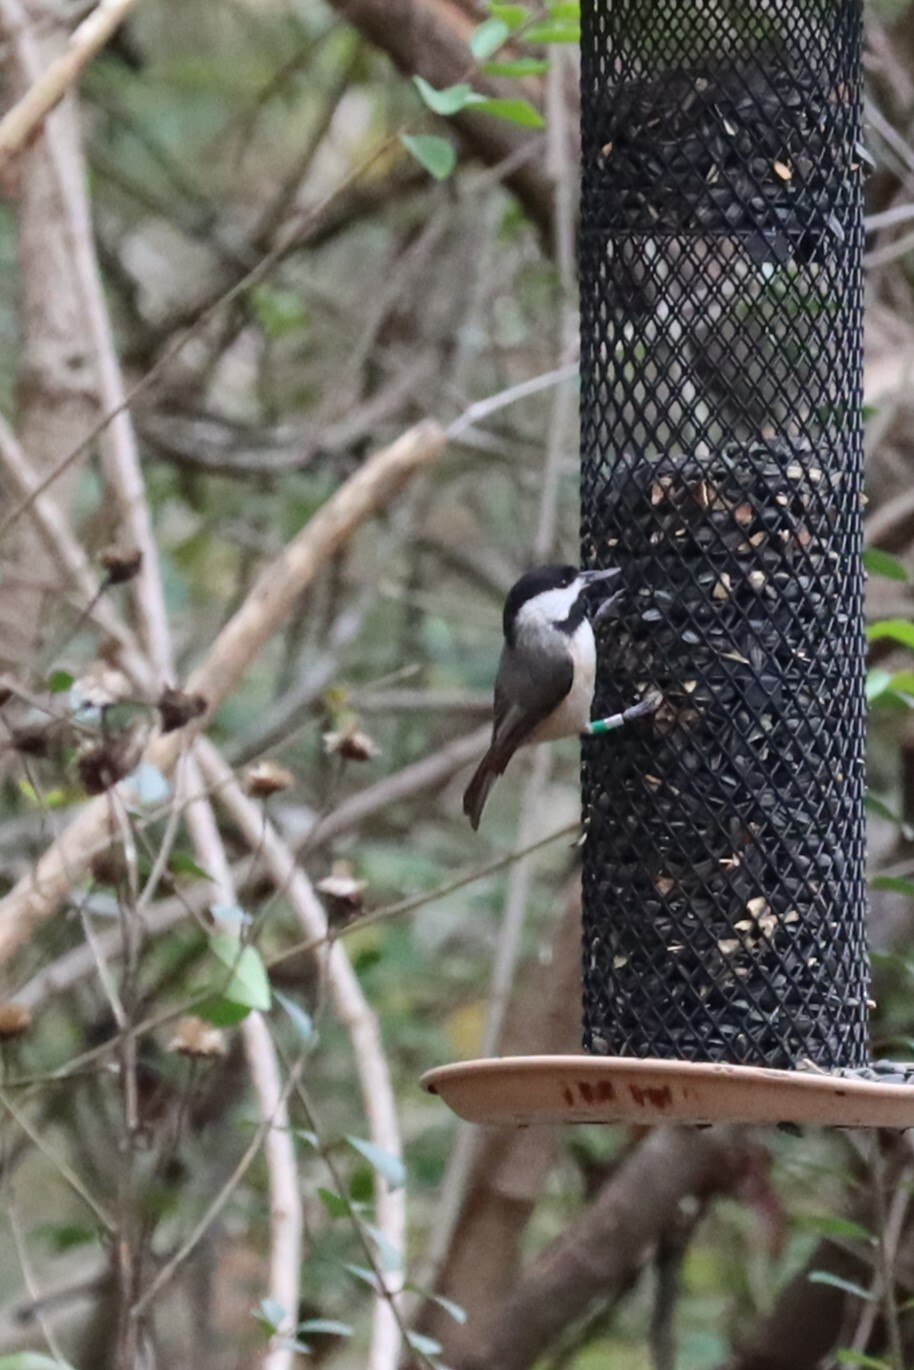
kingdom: Animalia
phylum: Chordata
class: Aves
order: Passeriformes
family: Paridae
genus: Poecile
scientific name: Poecile carolinensis
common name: Carolina chickadee
